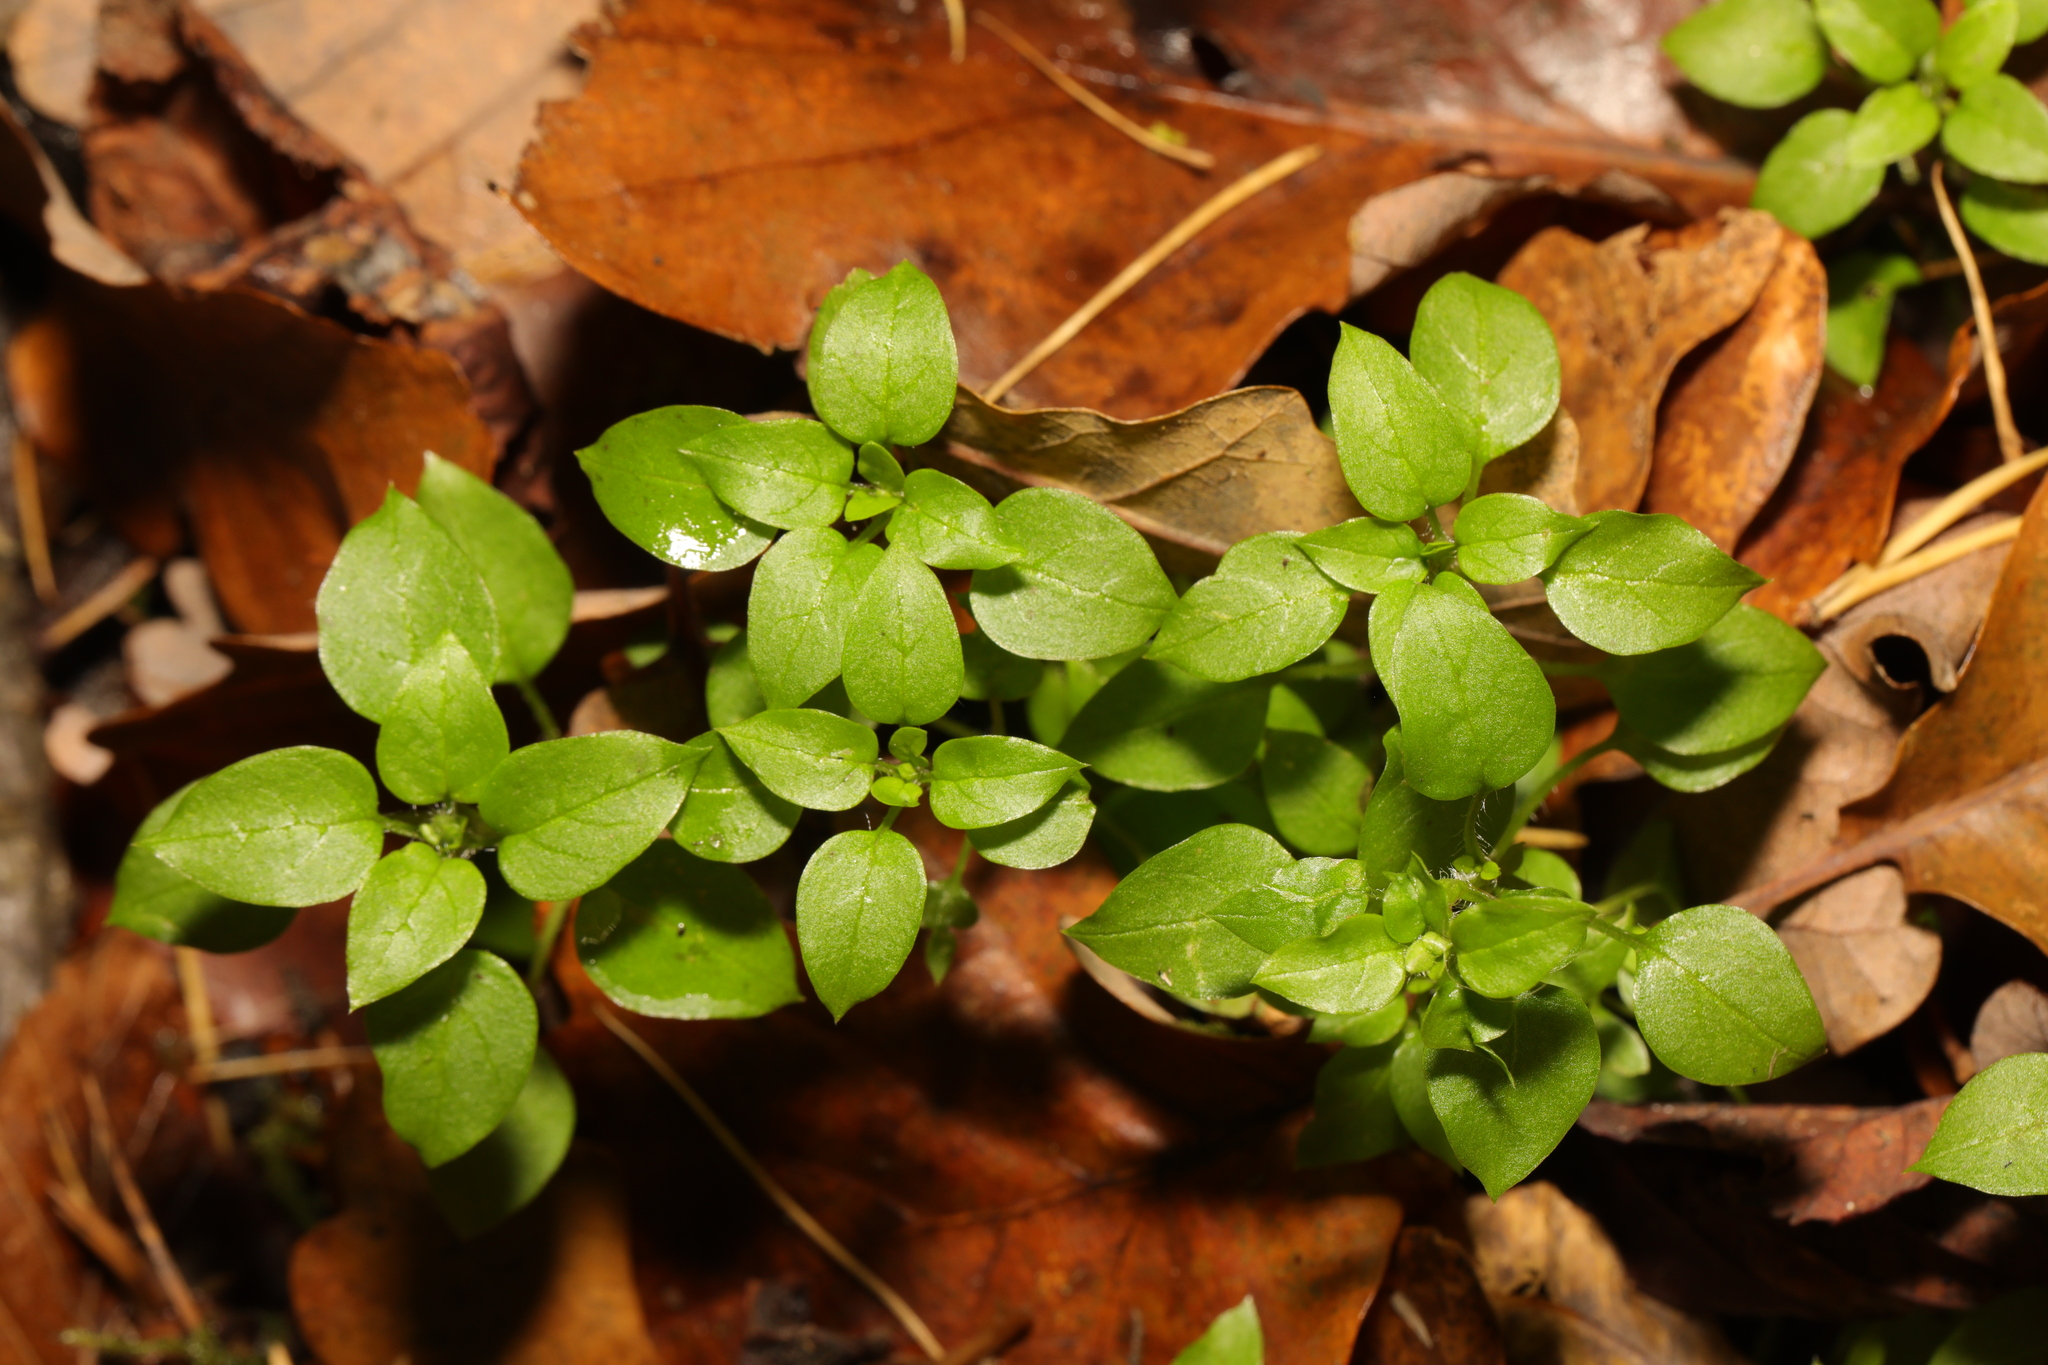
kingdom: Plantae
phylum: Tracheophyta
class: Magnoliopsida
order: Caryophyllales
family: Caryophyllaceae
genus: Stellaria
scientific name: Stellaria media
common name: Common chickweed
